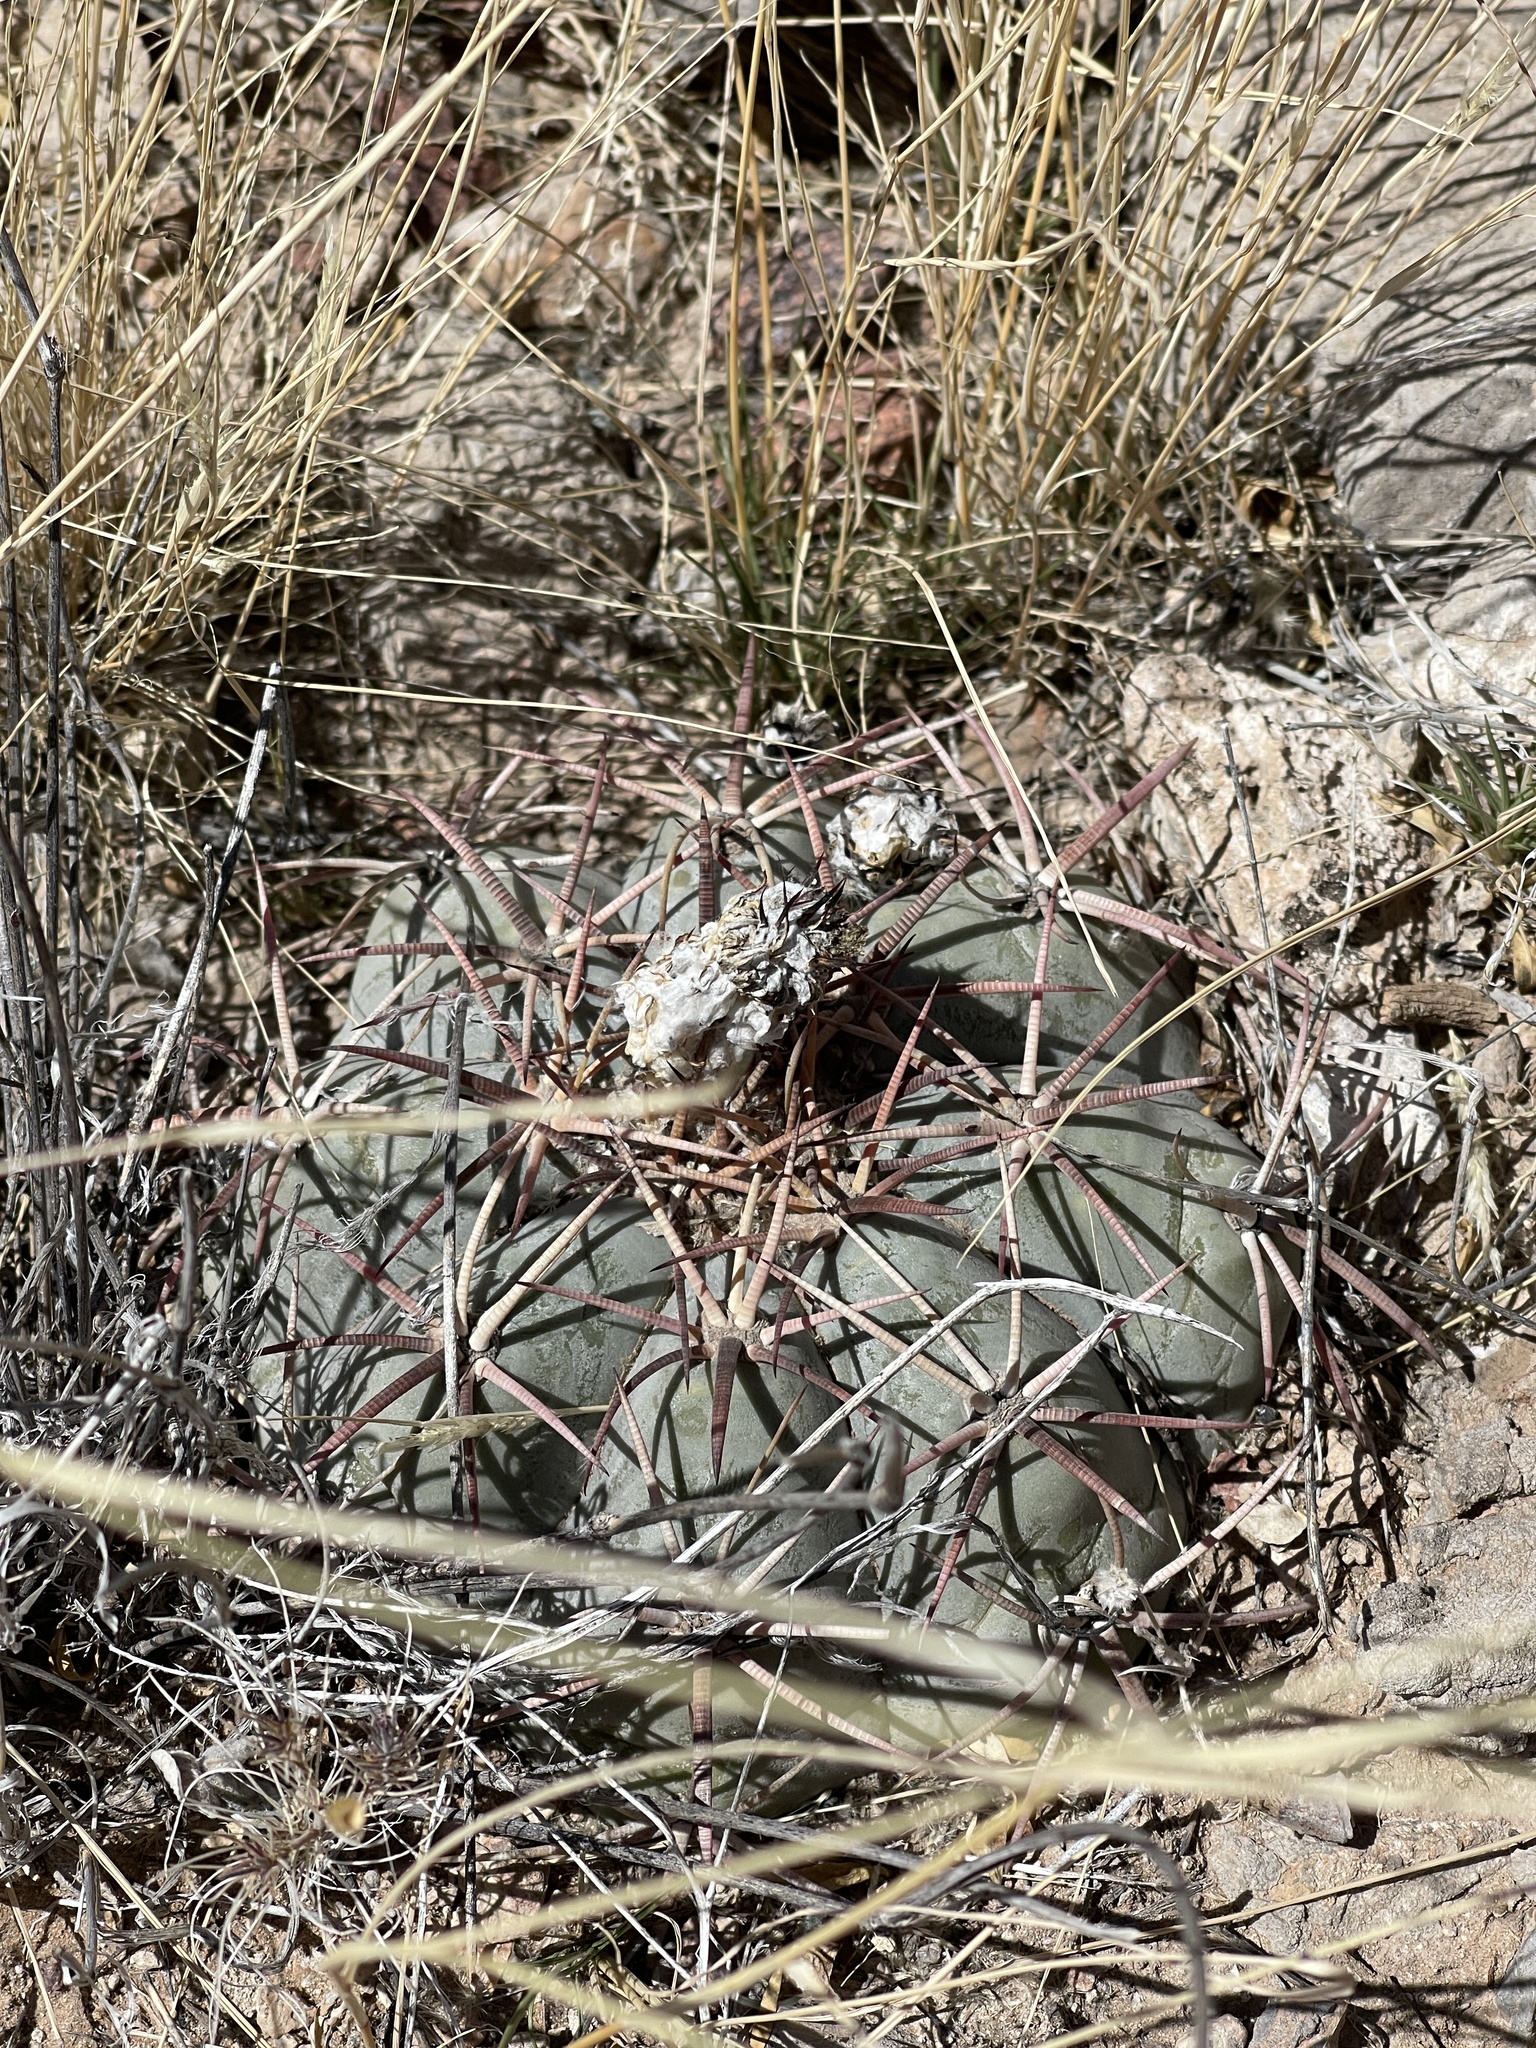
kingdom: Plantae
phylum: Tracheophyta
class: Magnoliopsida
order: Caryophyllales
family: Cactaceae
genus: Echinocactus
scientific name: Echinocactus horizonthalonius
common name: Devilshead
